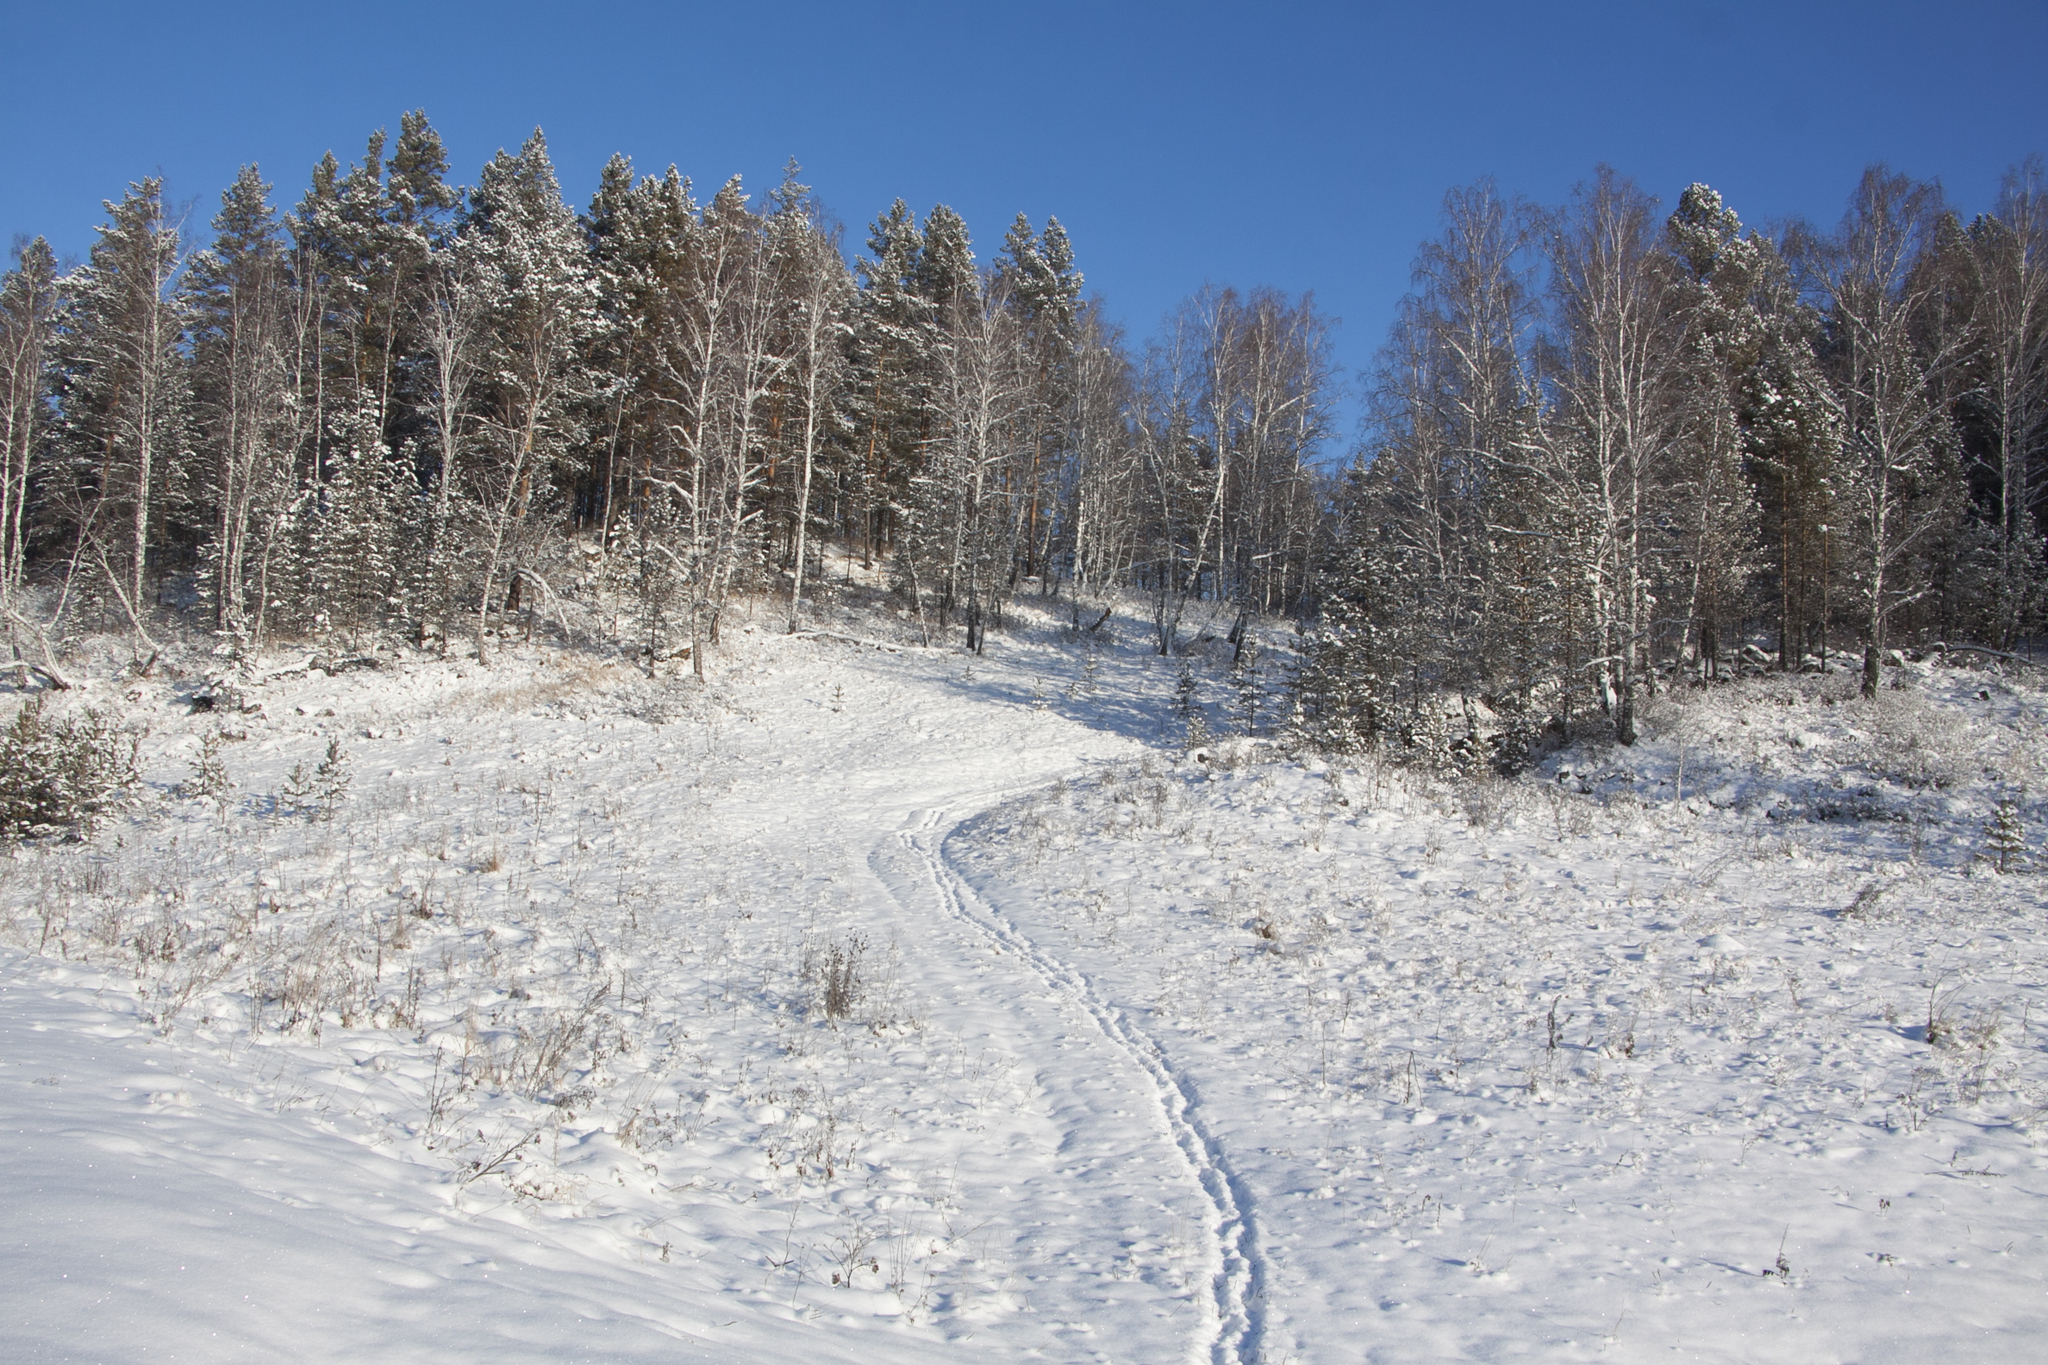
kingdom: Plantae
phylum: Tracheophyta
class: Pinopsida
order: Pinales
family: Pinaceae
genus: Pinus
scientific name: Pinus sylvestris
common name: Scots pine
